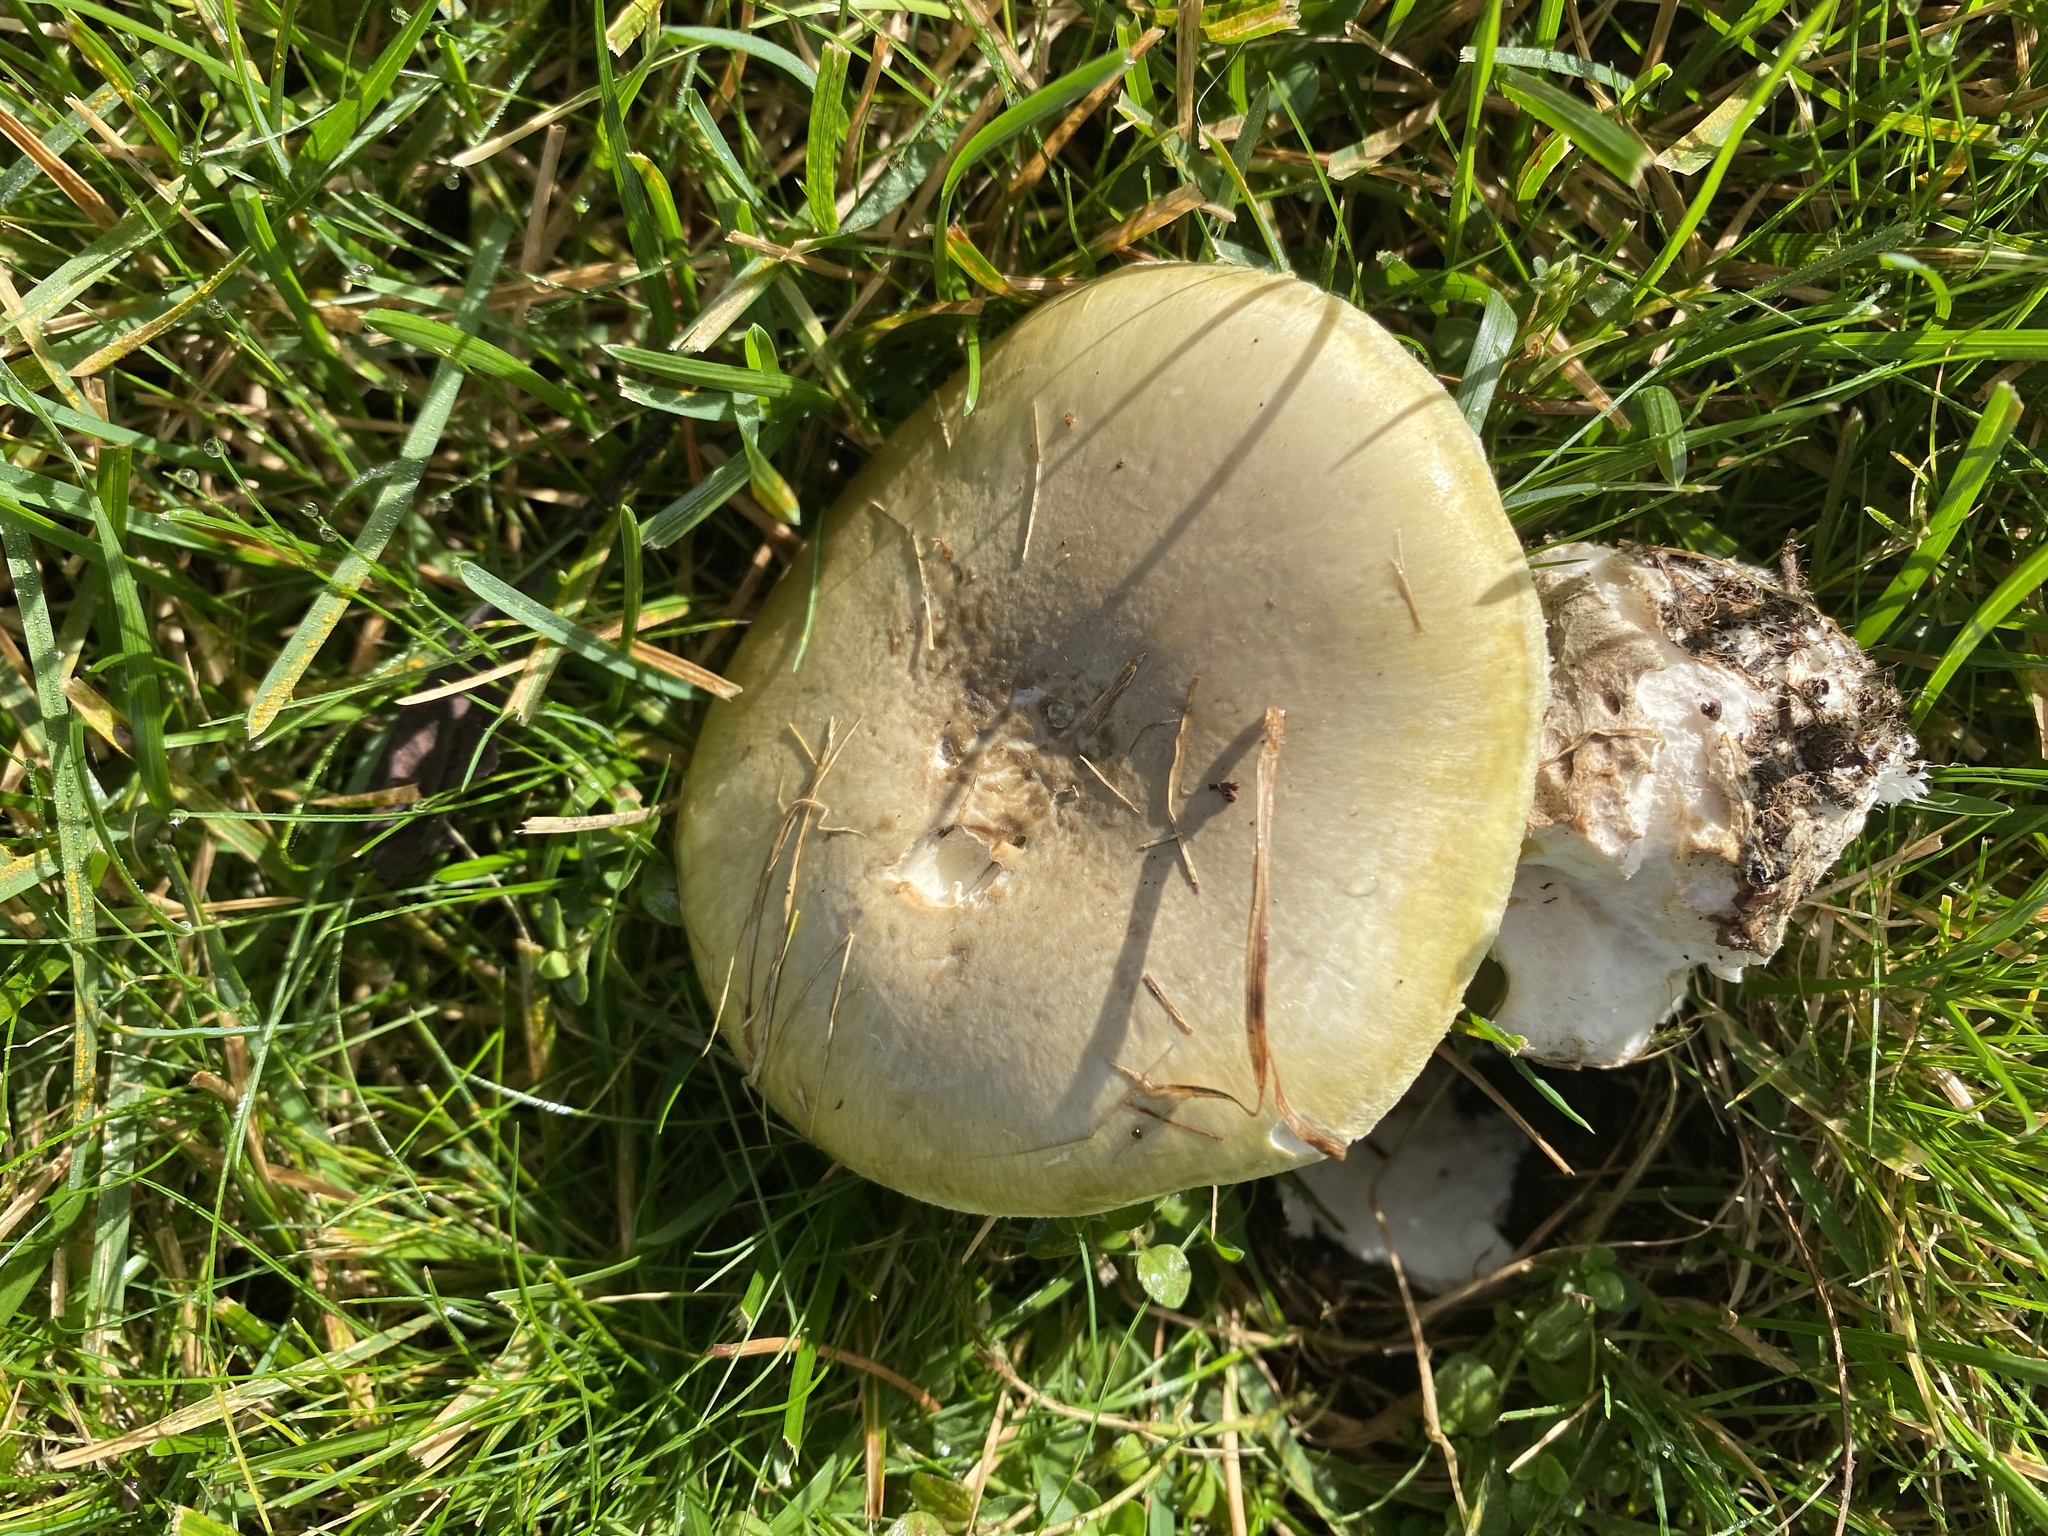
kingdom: Fungi
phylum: Basidiomycota
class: Agaricomycetes
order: Agaricales
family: Amanitaceae
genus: Amanita
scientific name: Amanita phalloides
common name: Death cap
